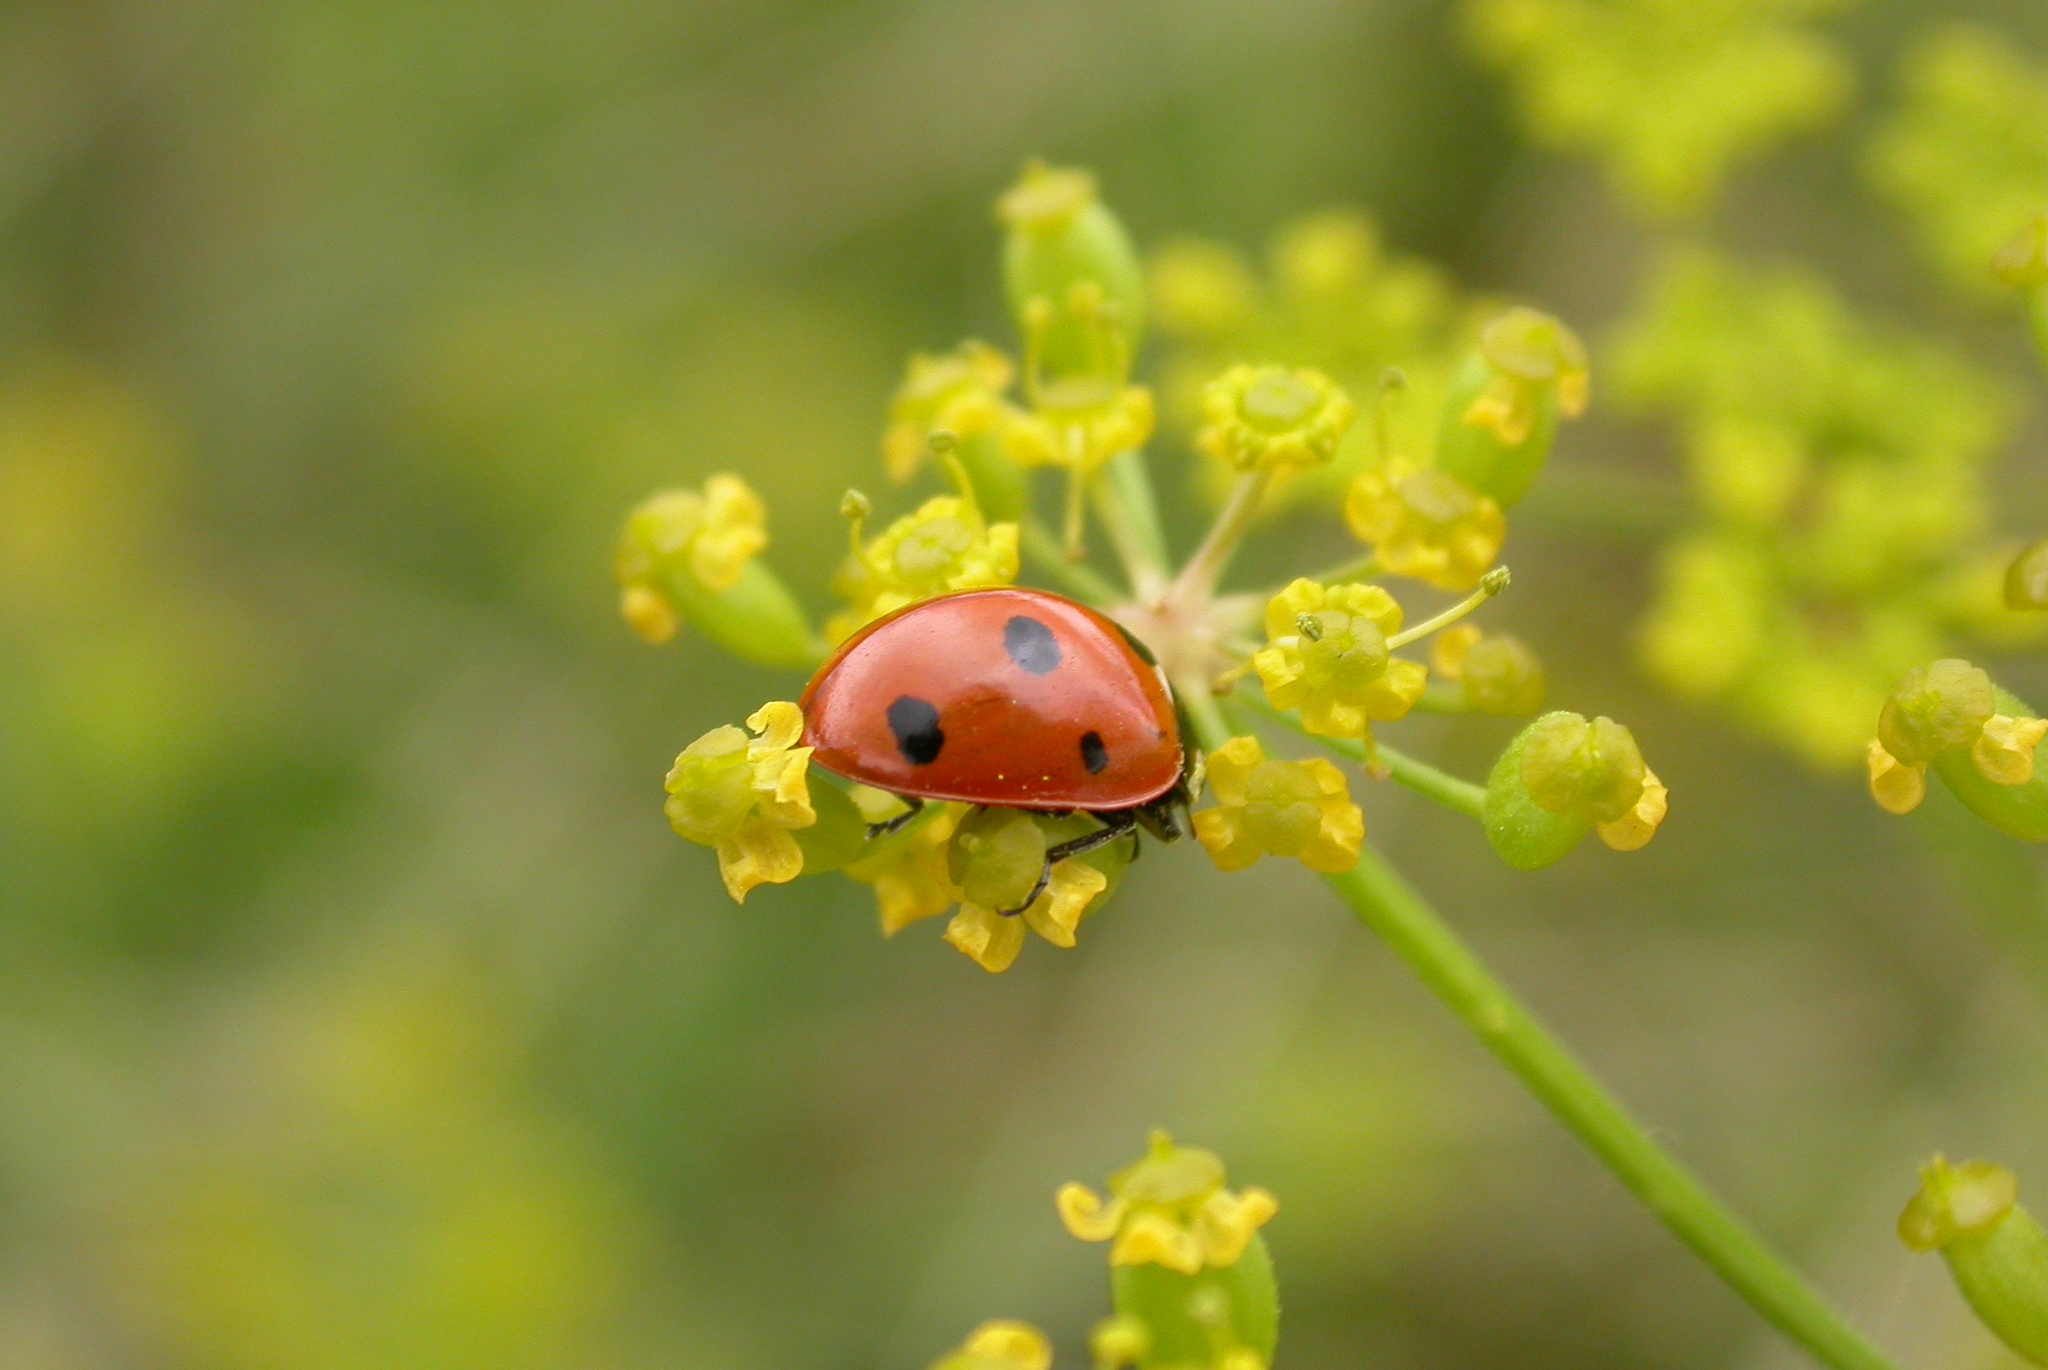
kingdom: Animalia
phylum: Arthropoda
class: Insecta
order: Coleoptera
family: Coccinellidae
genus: Coccinella
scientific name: Coccinella septempunctata
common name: Sevenspotted lady beetle
